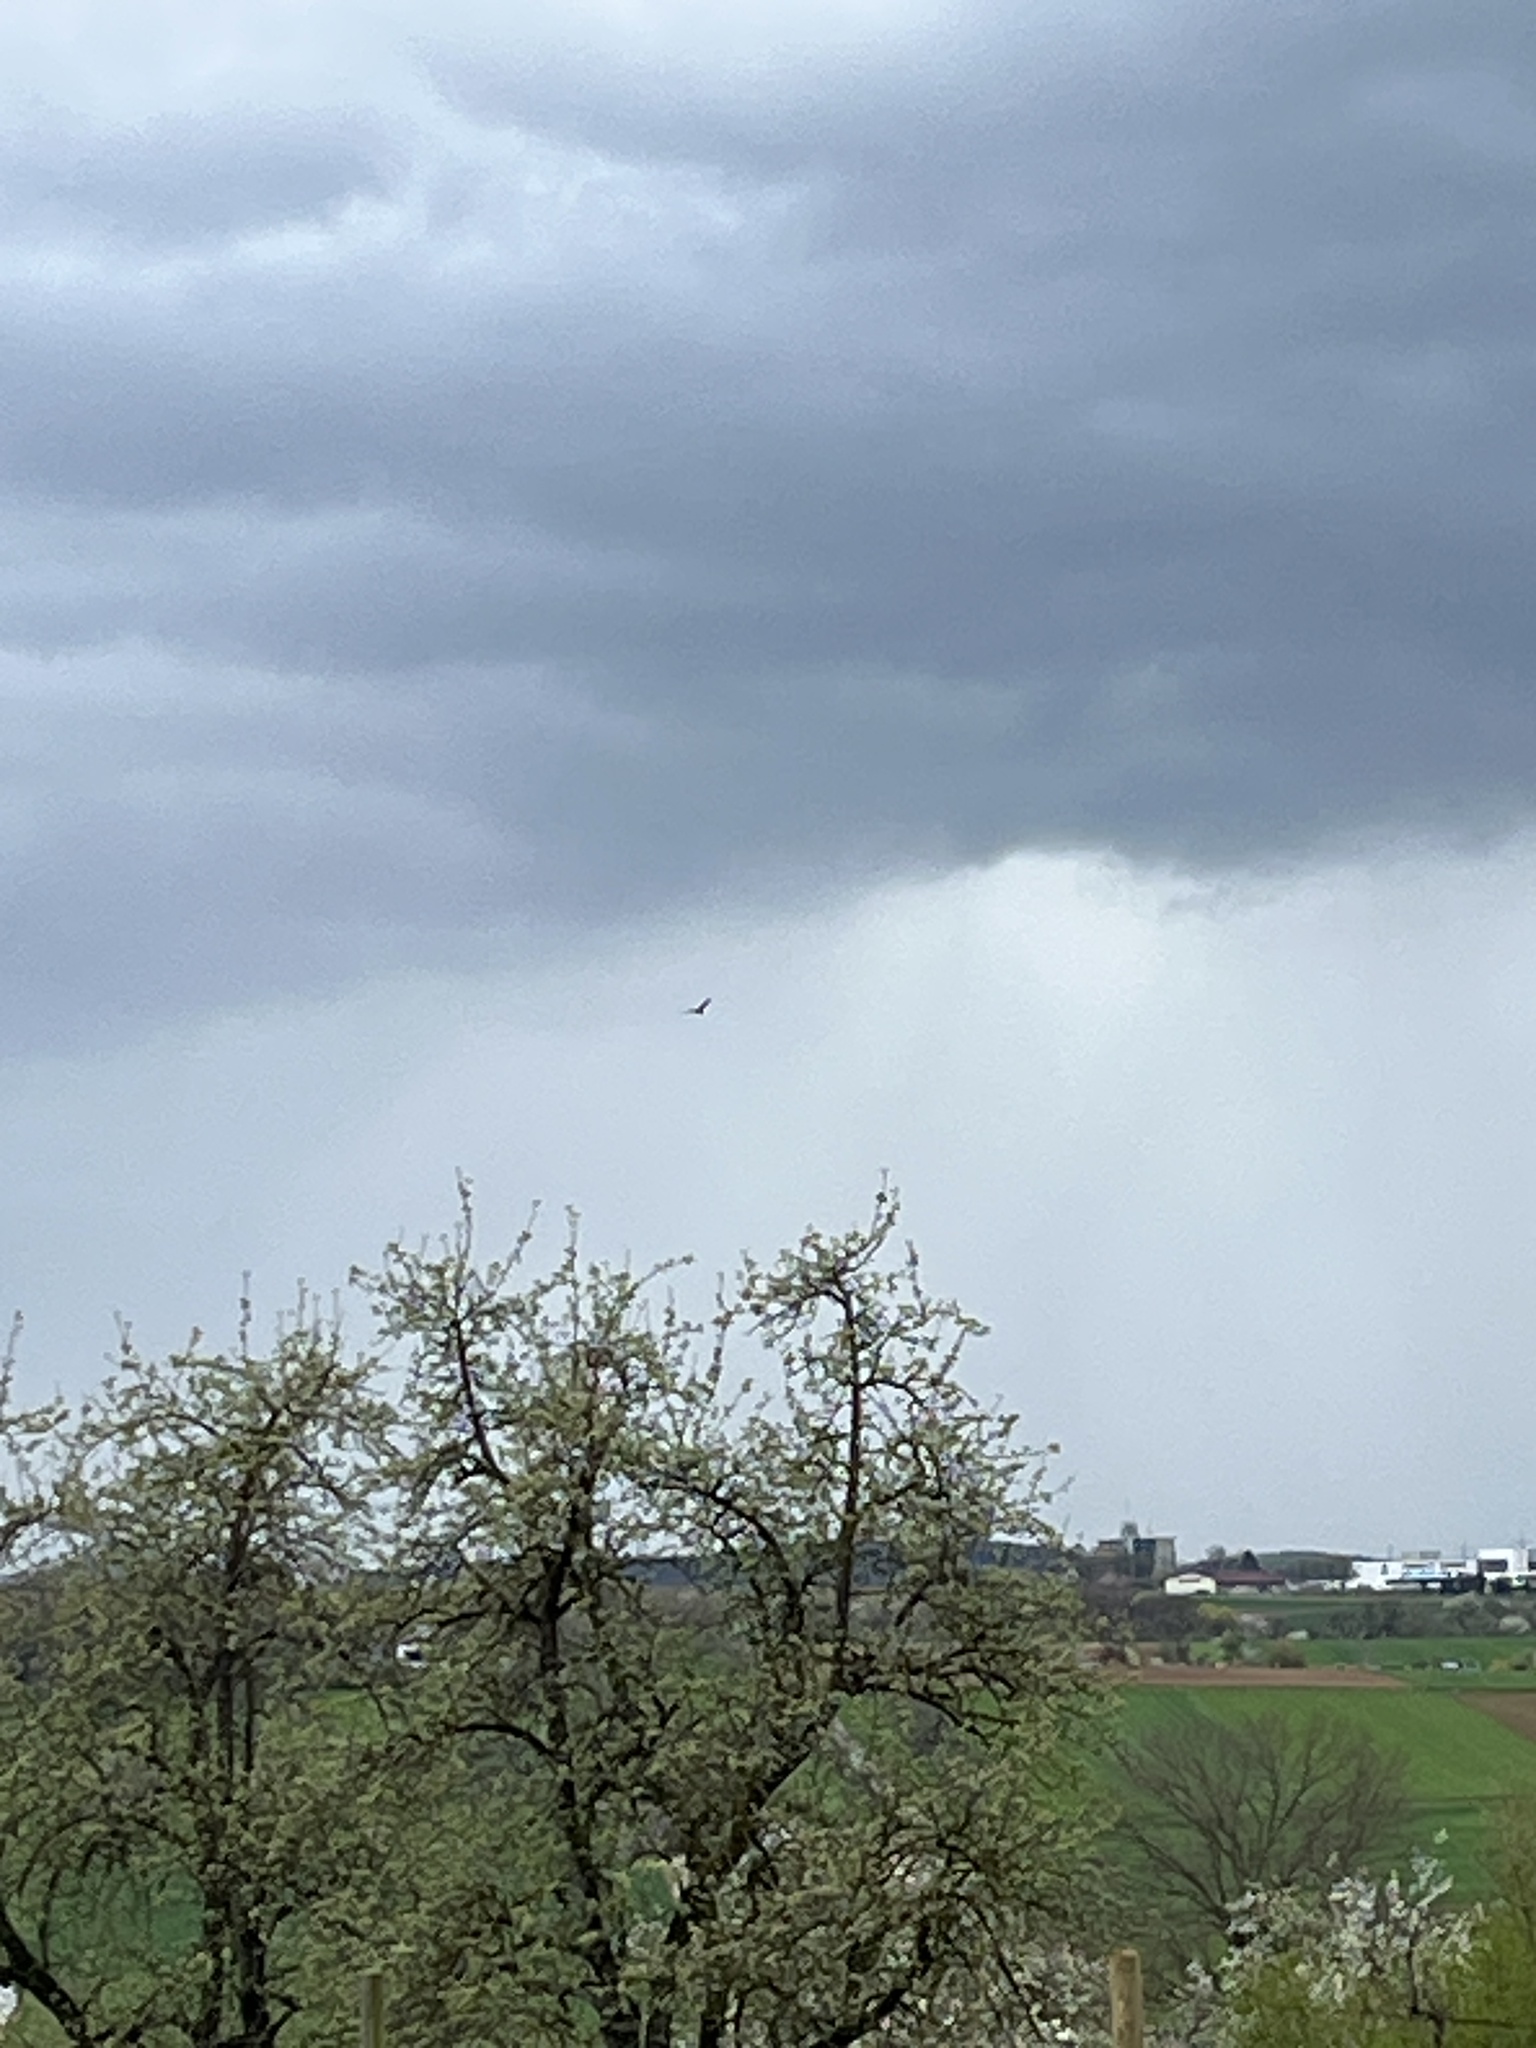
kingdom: Animalia
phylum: Chordata
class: Aves
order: Accipitriformes
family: Accipitridae
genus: Milvus
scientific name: Milvus milvus
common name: Red kite
